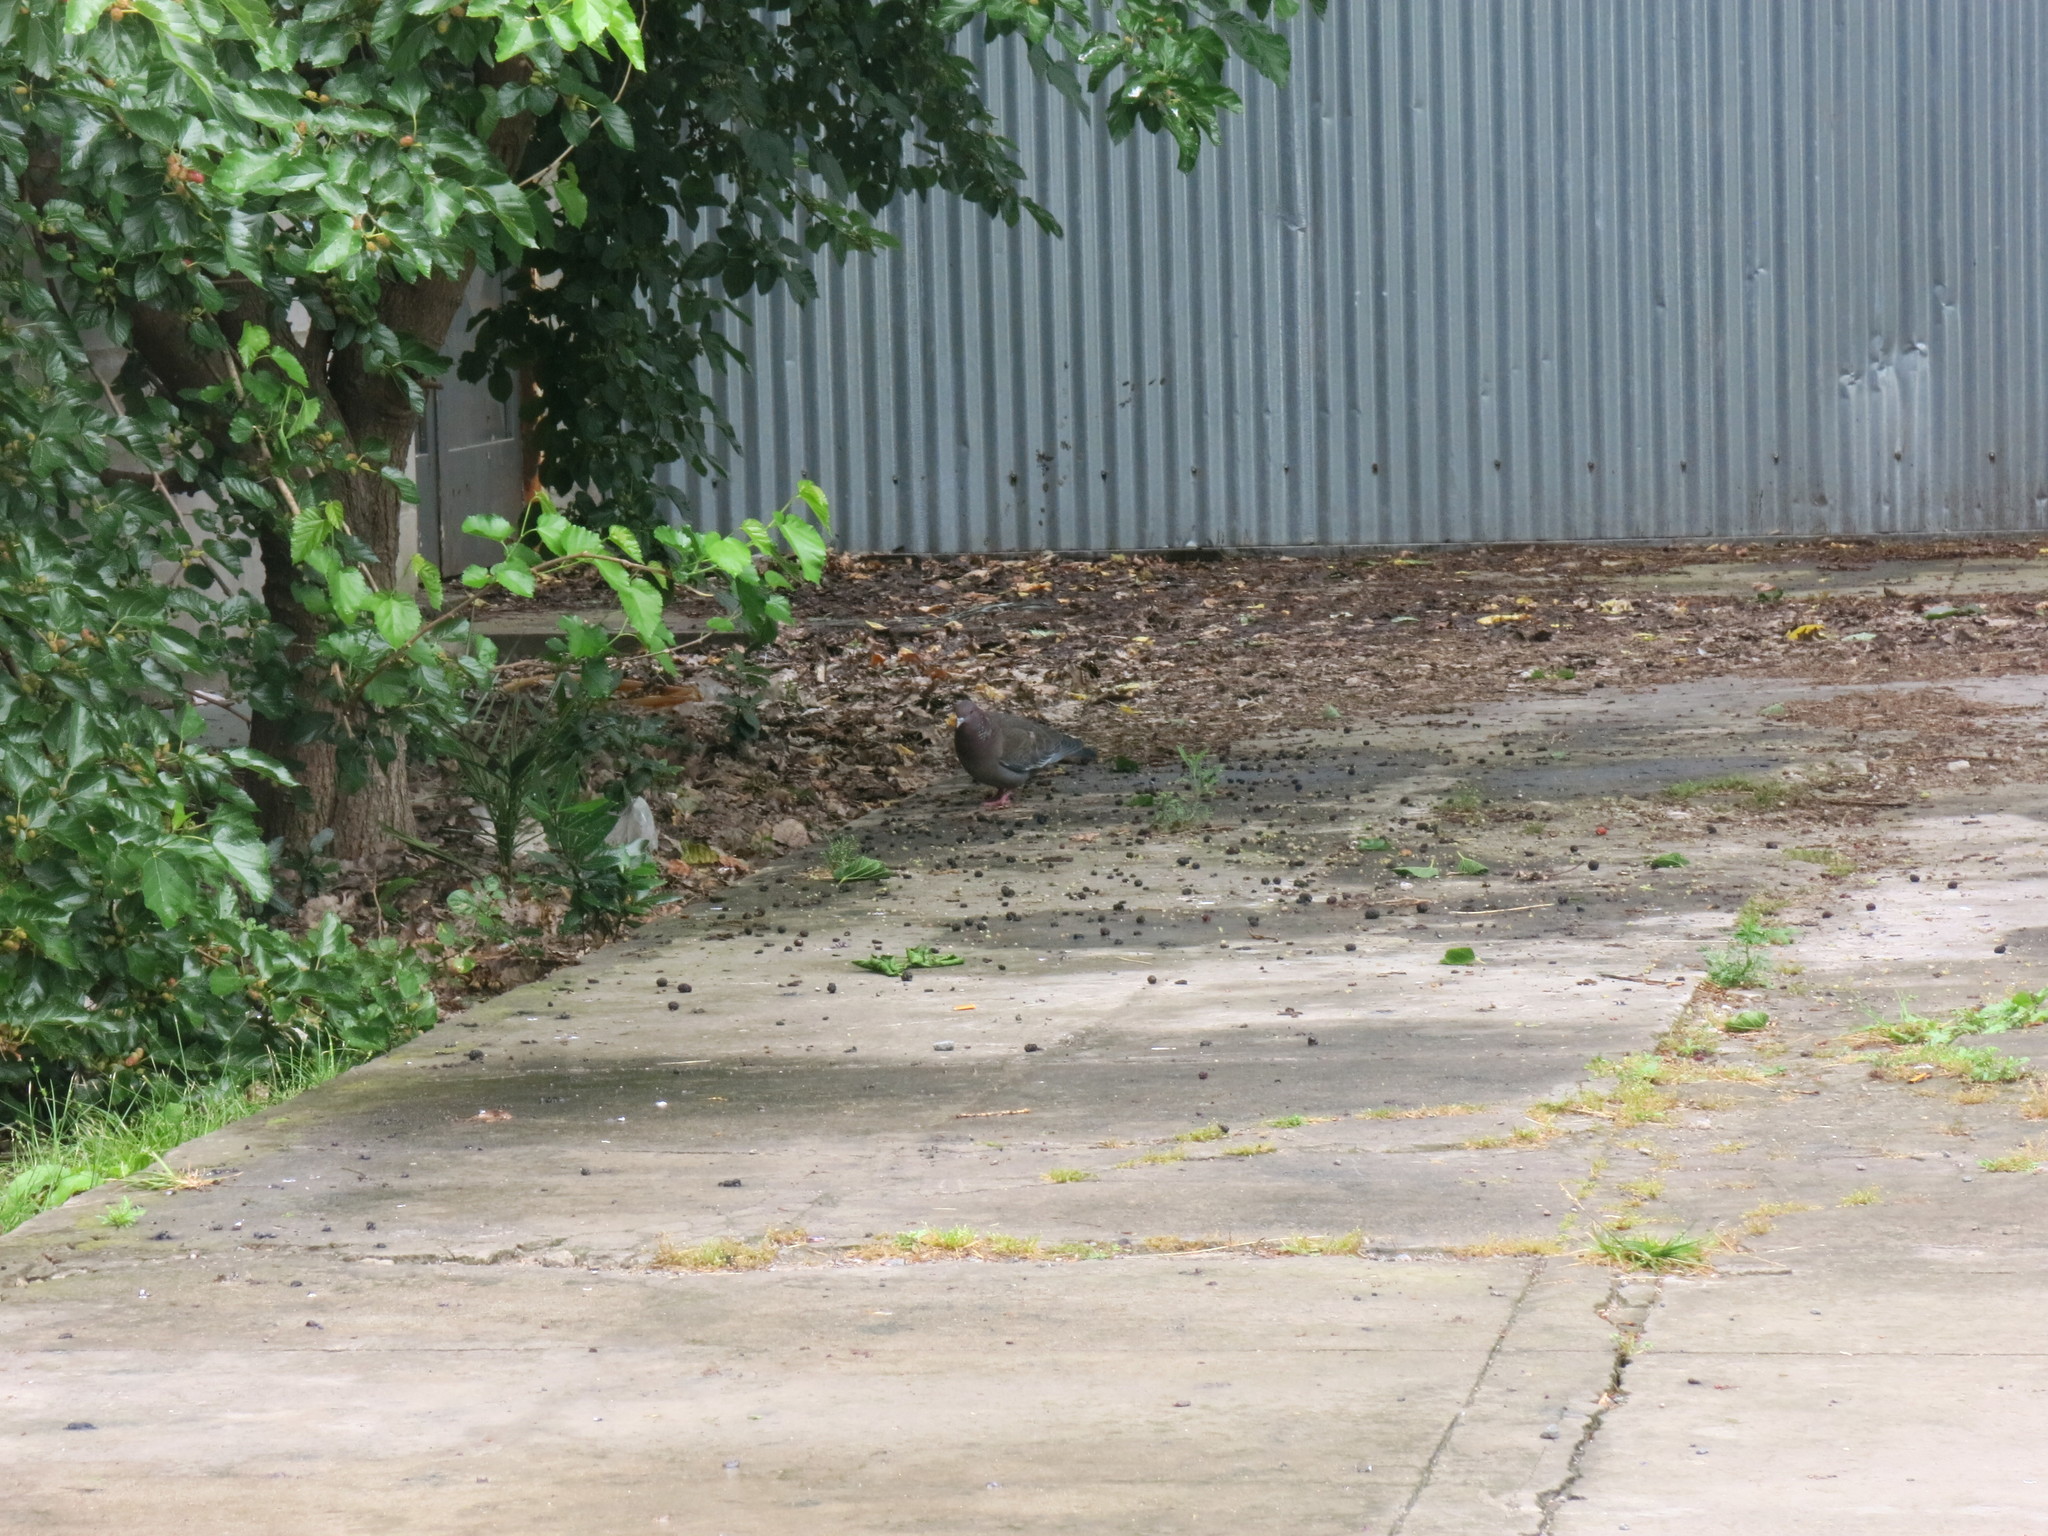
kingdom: Animalia
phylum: Chordata
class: Aves
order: Columbiformes
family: Columbidae
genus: Patagioenas
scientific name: Patagioenas picazuro
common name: Picazuro pigeon
